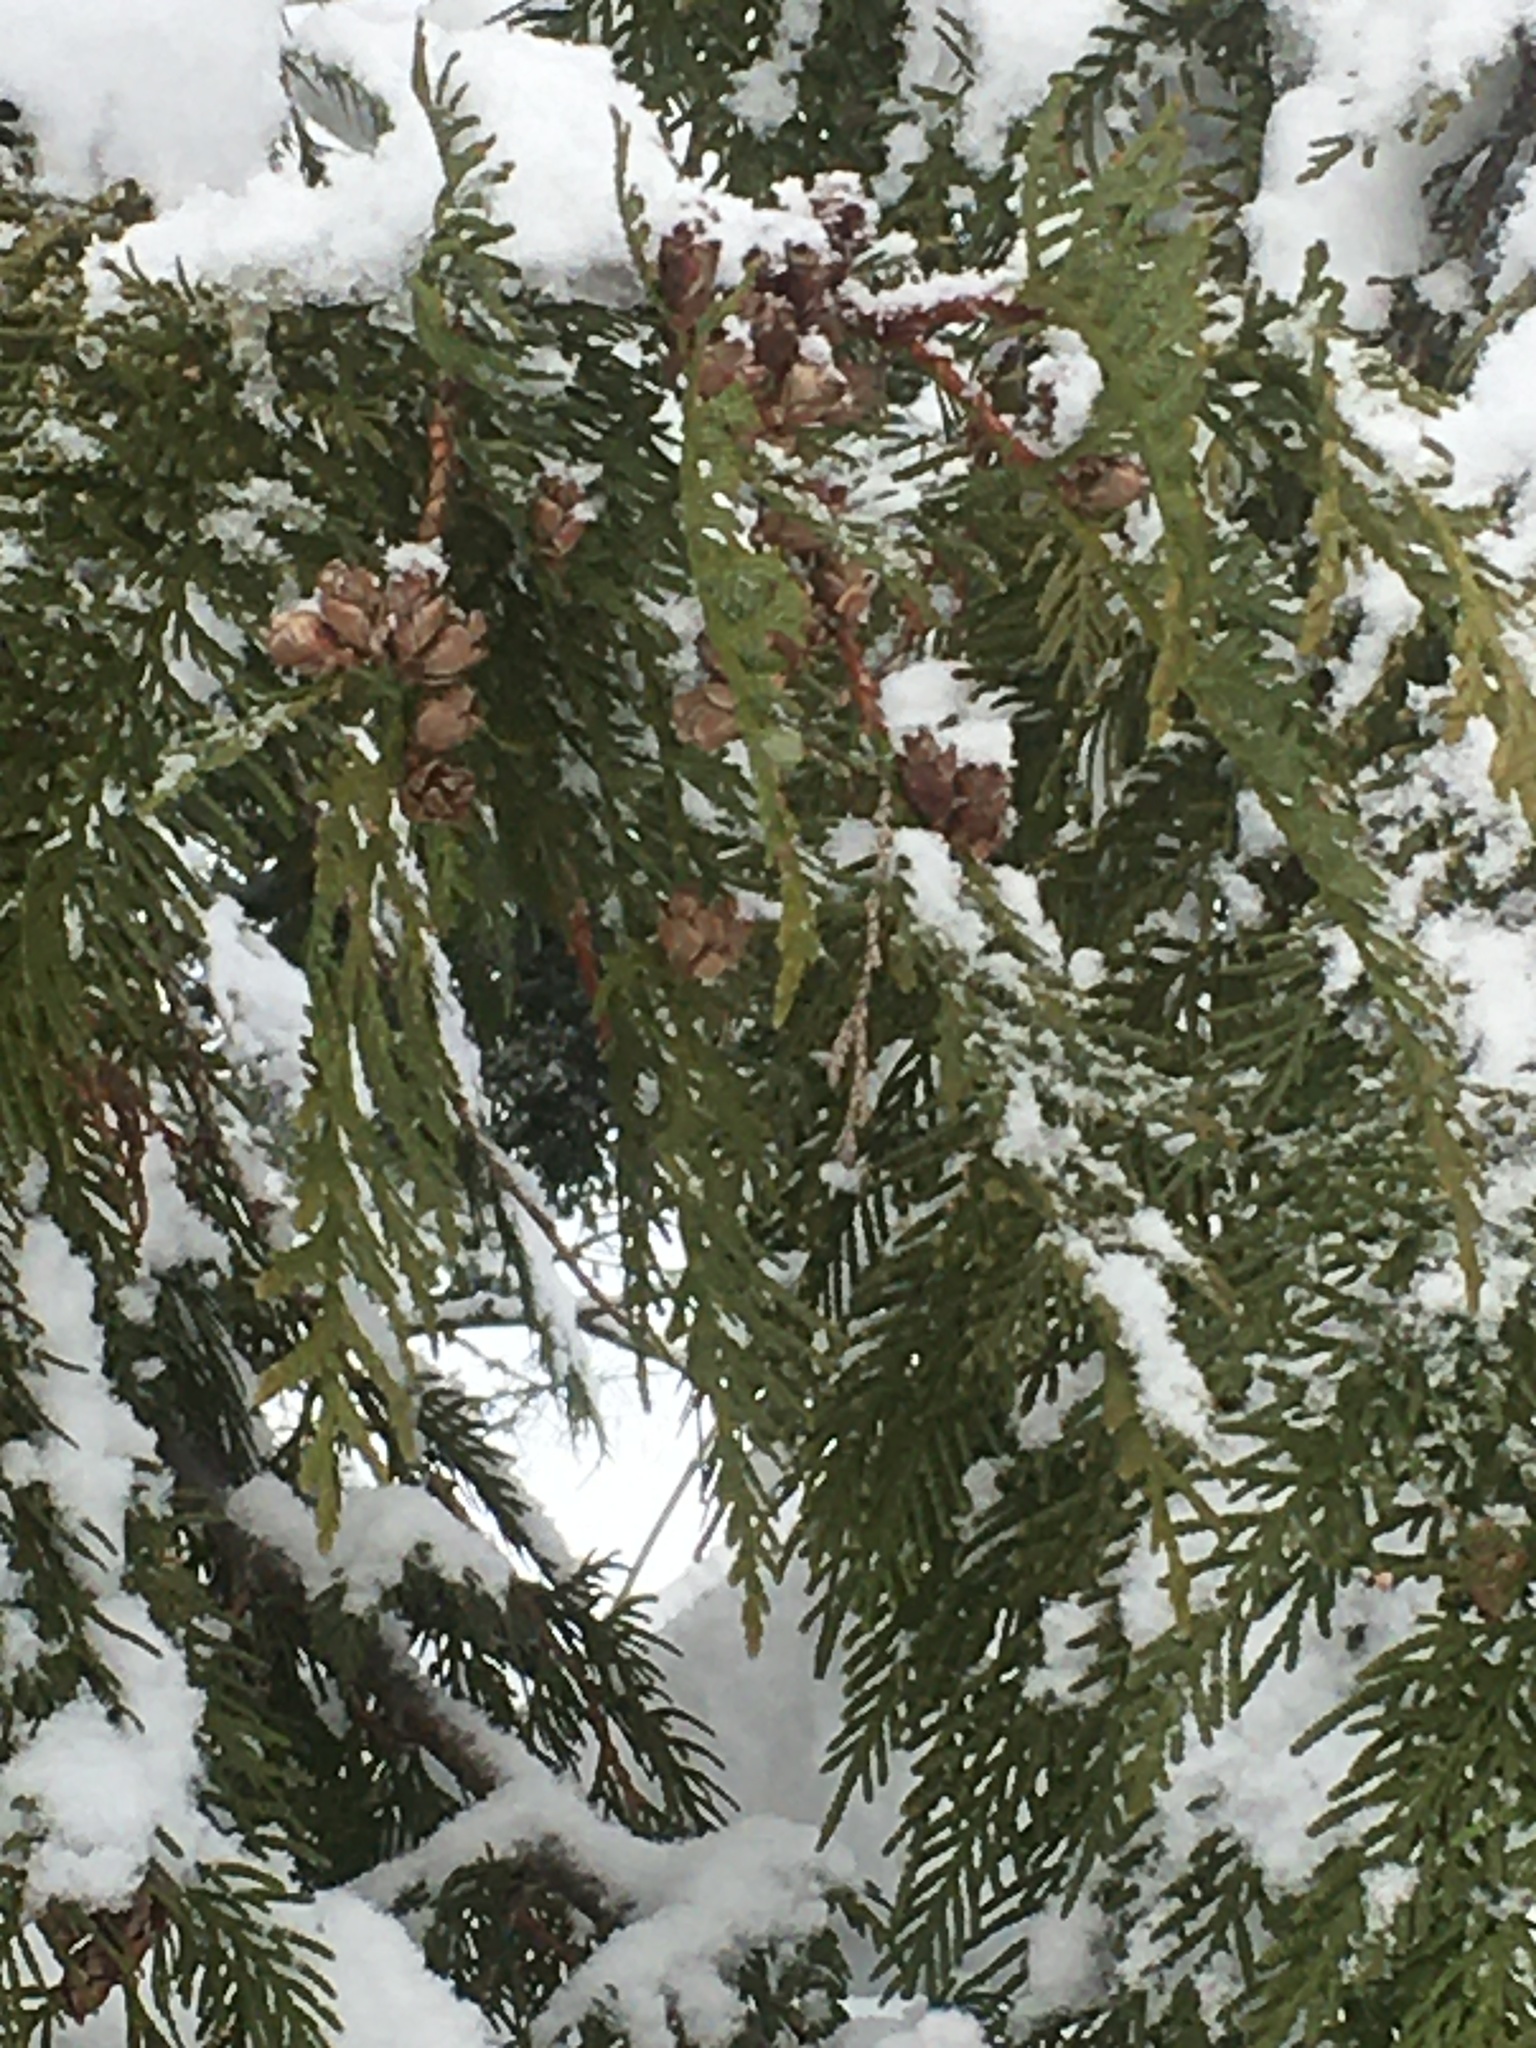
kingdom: Plantae
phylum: Tracheophyta
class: Pinopsida
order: Pinales
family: Cupressaceae
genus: Thuja
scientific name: Thuja plicata
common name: Western red-cedar
